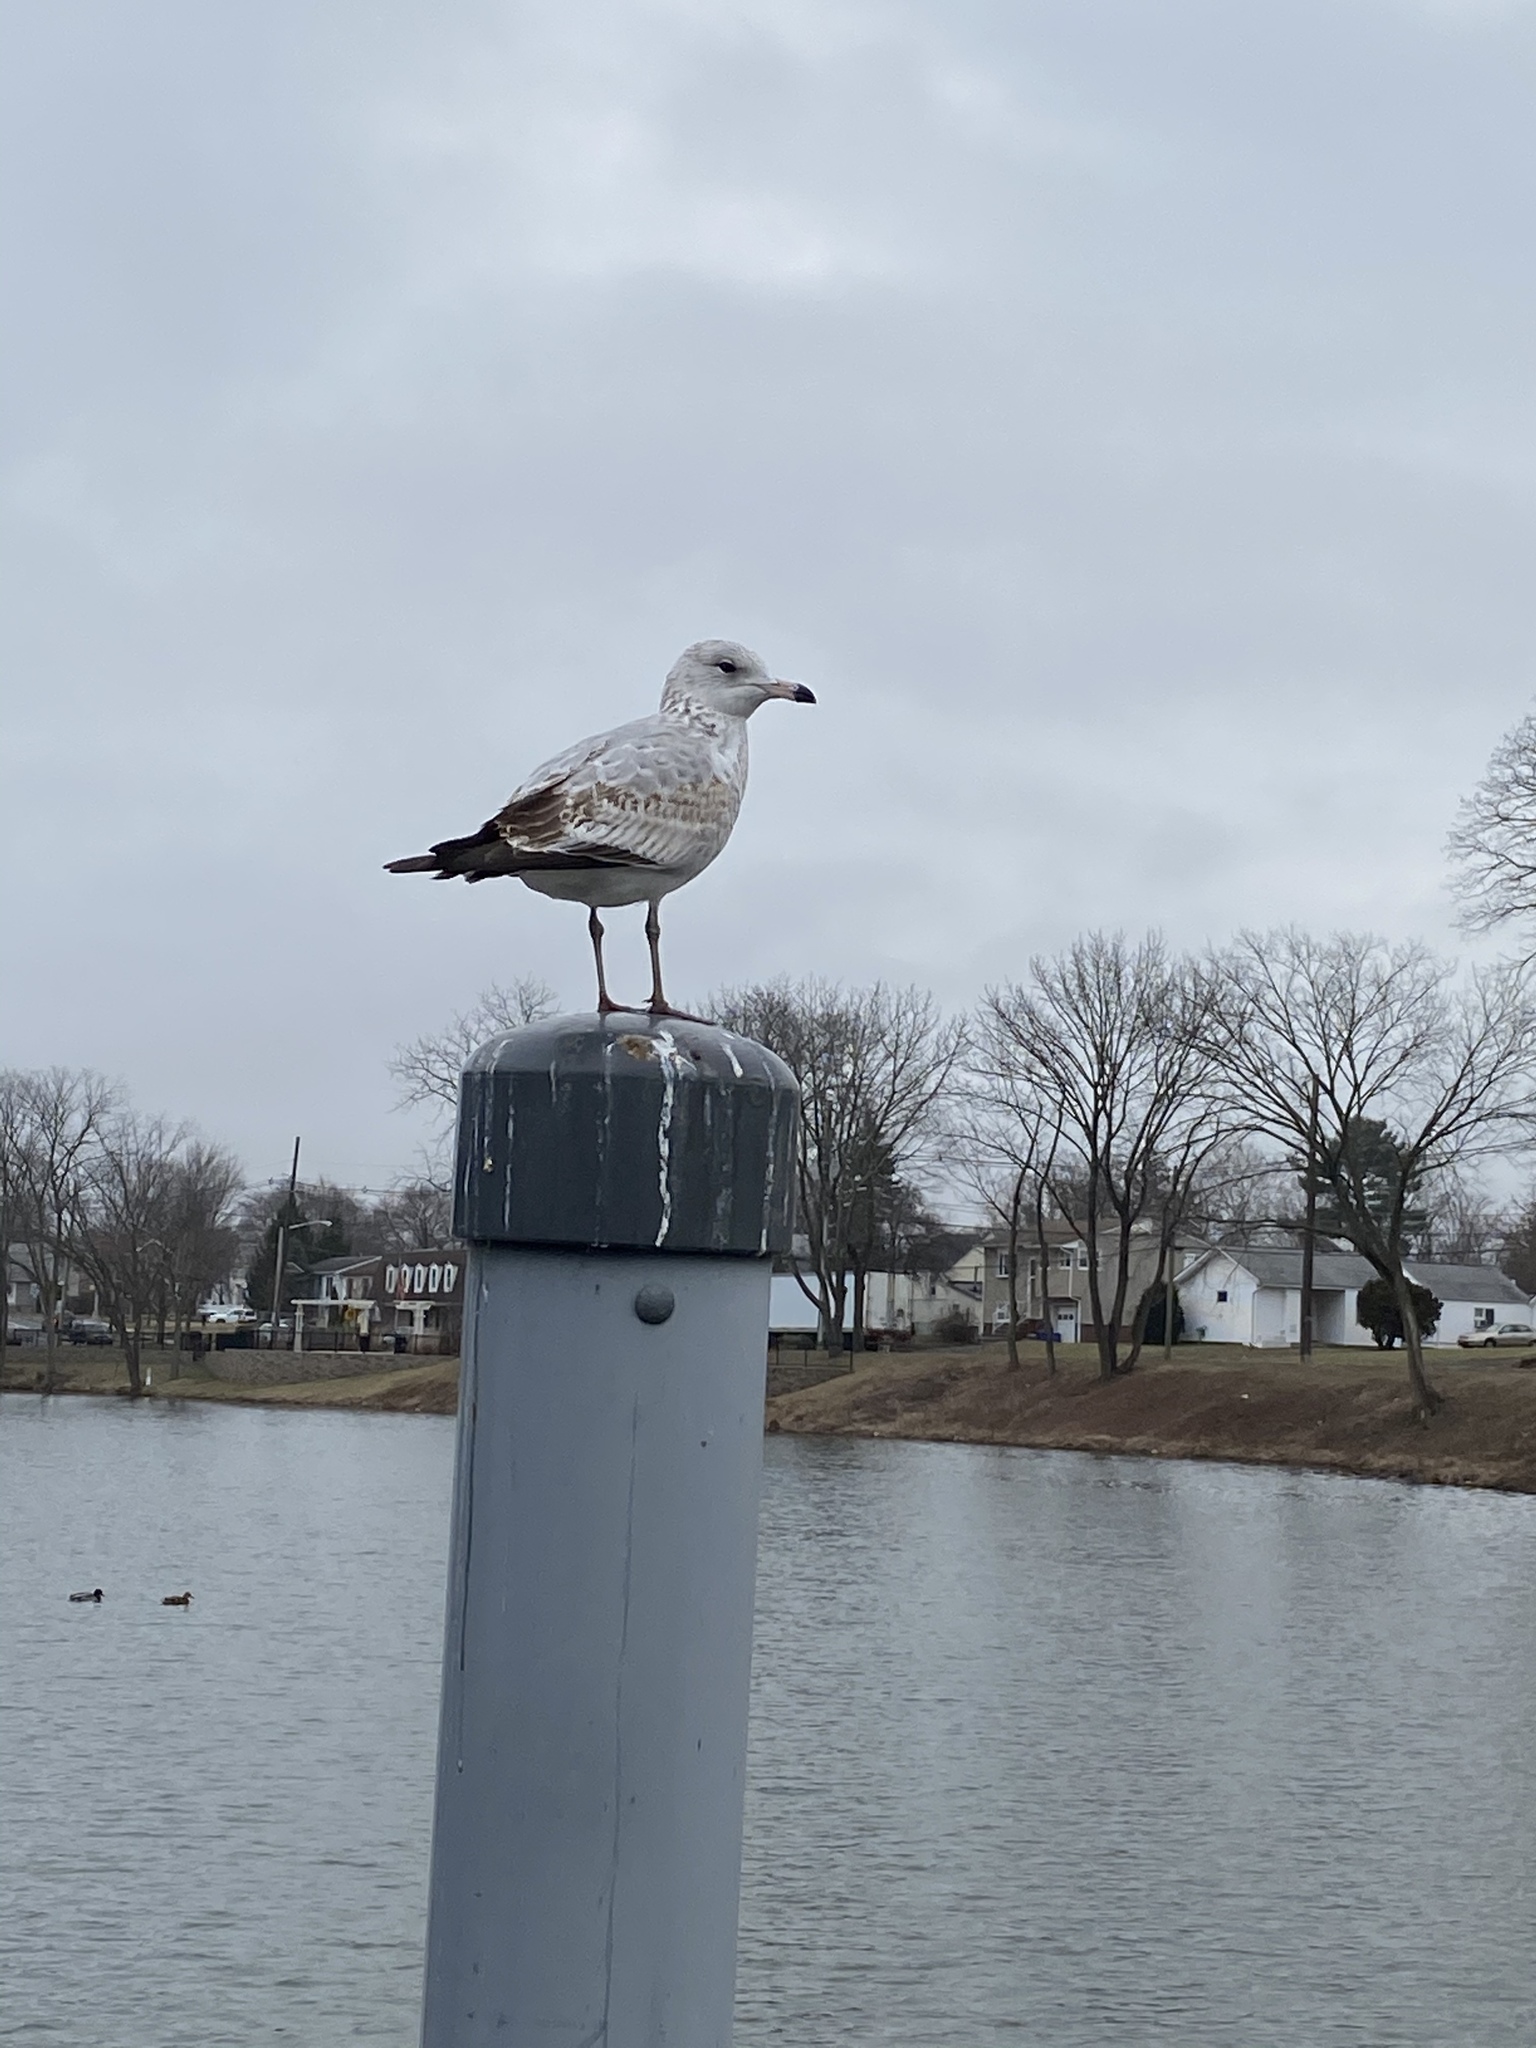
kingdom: Animalia
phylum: Chordata
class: Aves
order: Charadriiformes
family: Laridae
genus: Larus
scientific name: Larus delawarensis
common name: Ring-billed gull
